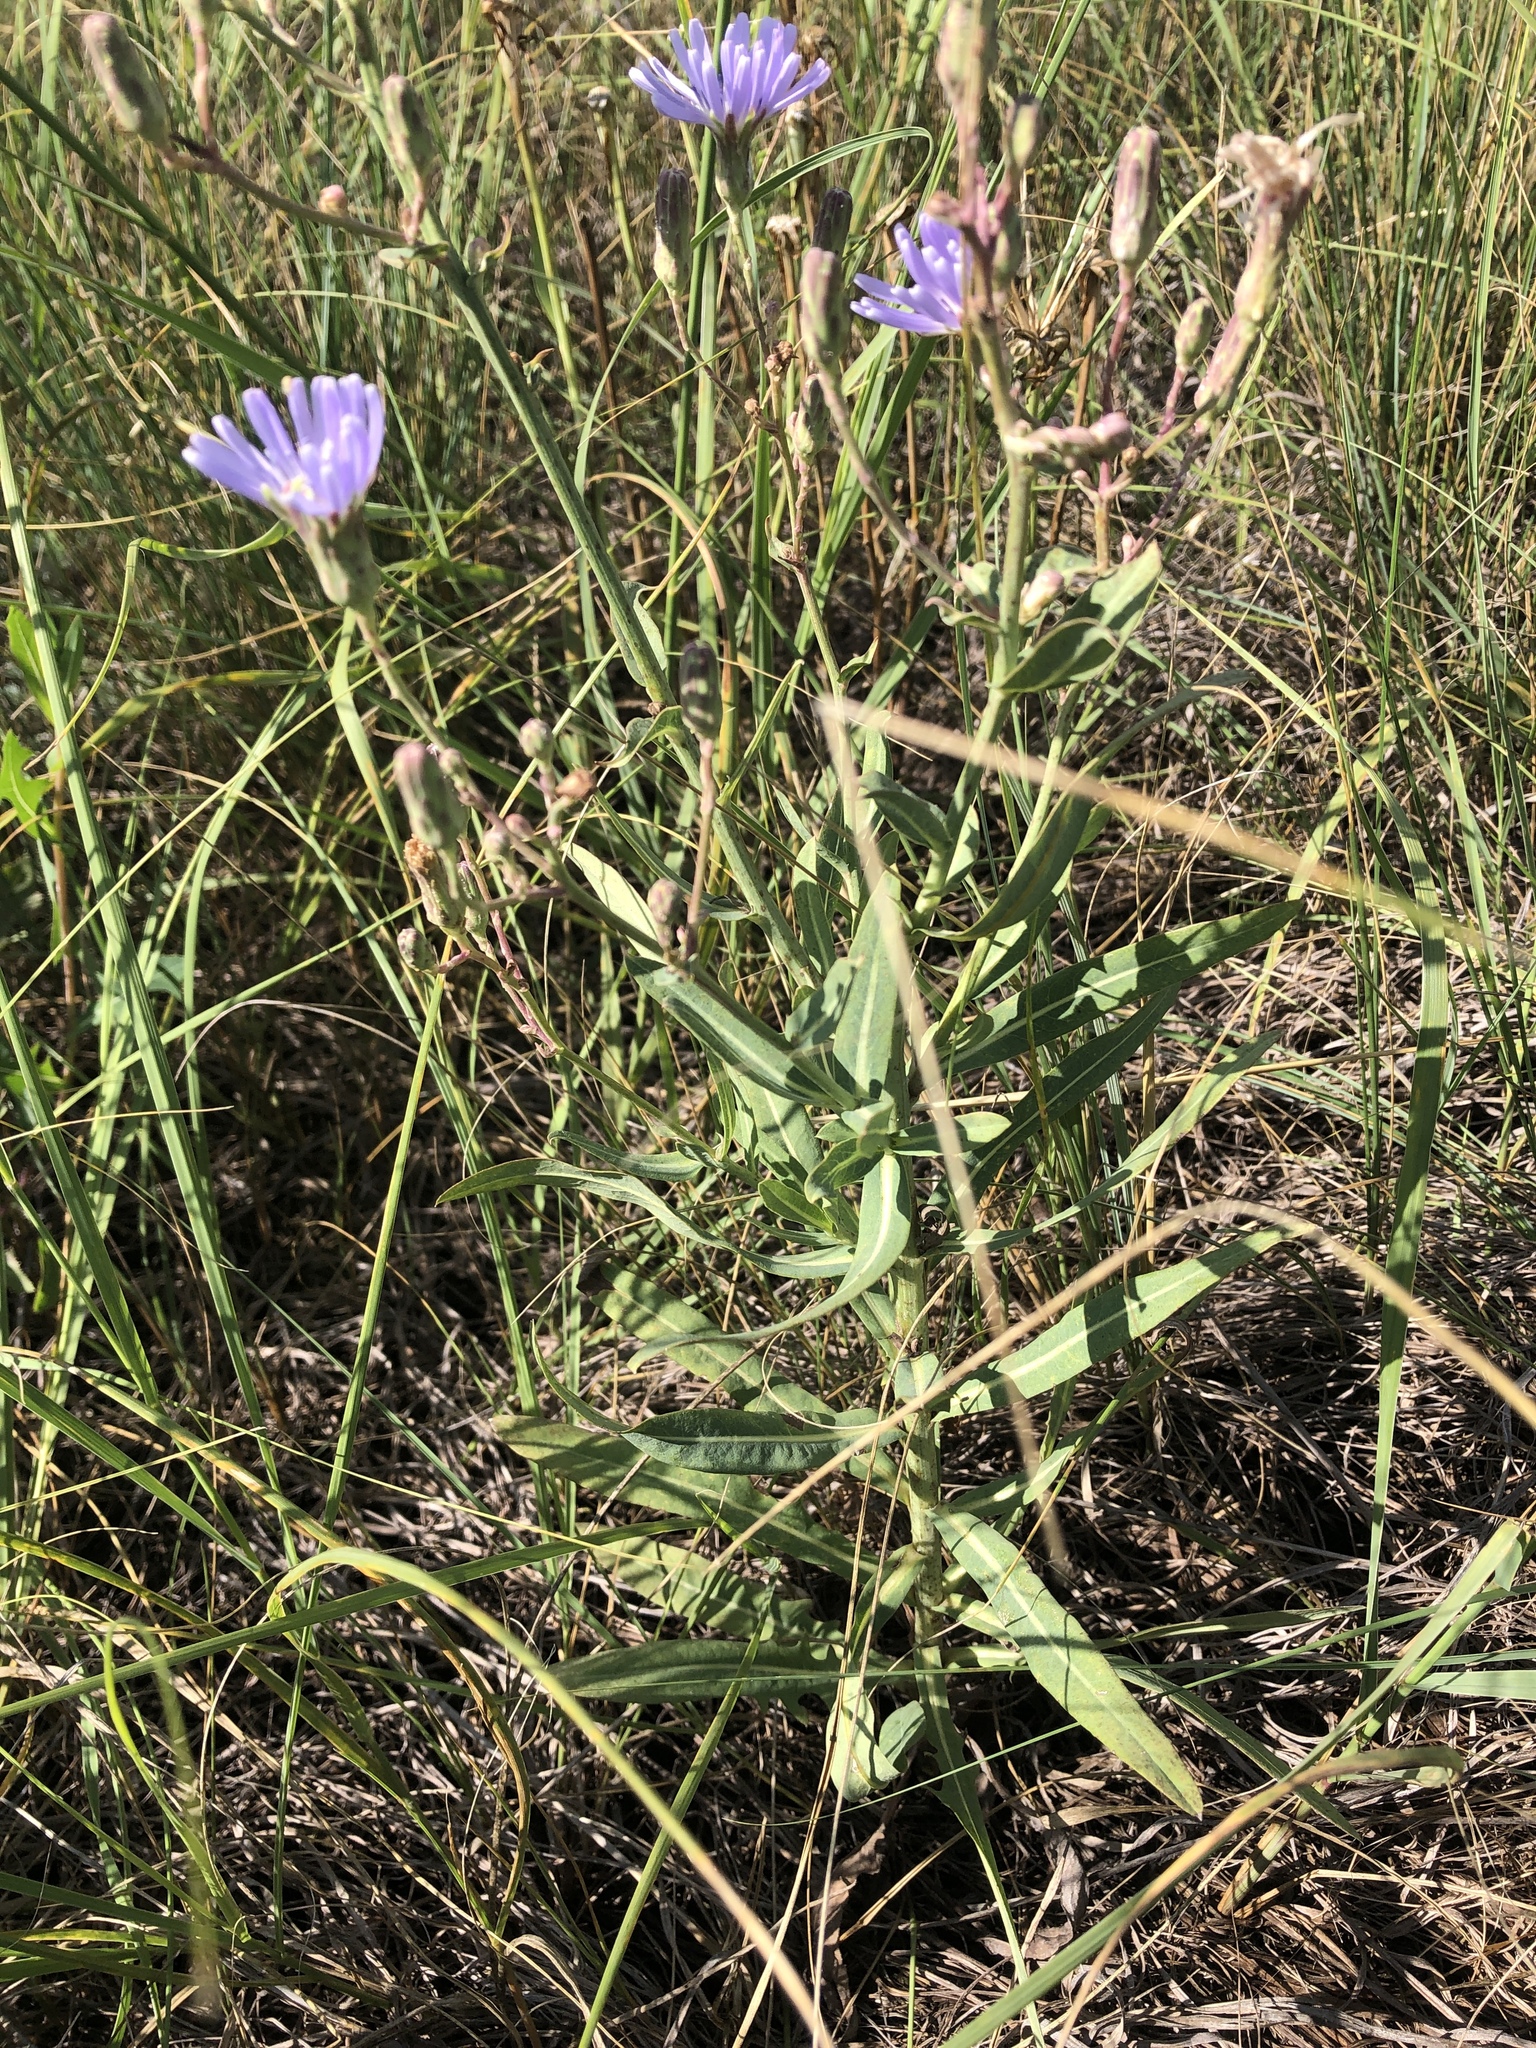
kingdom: Plantae
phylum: Tracheophyta
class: Magnoliopsida
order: Asterales
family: Asteraceae
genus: Cichorium
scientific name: Cichorium intybus
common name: Chicory
